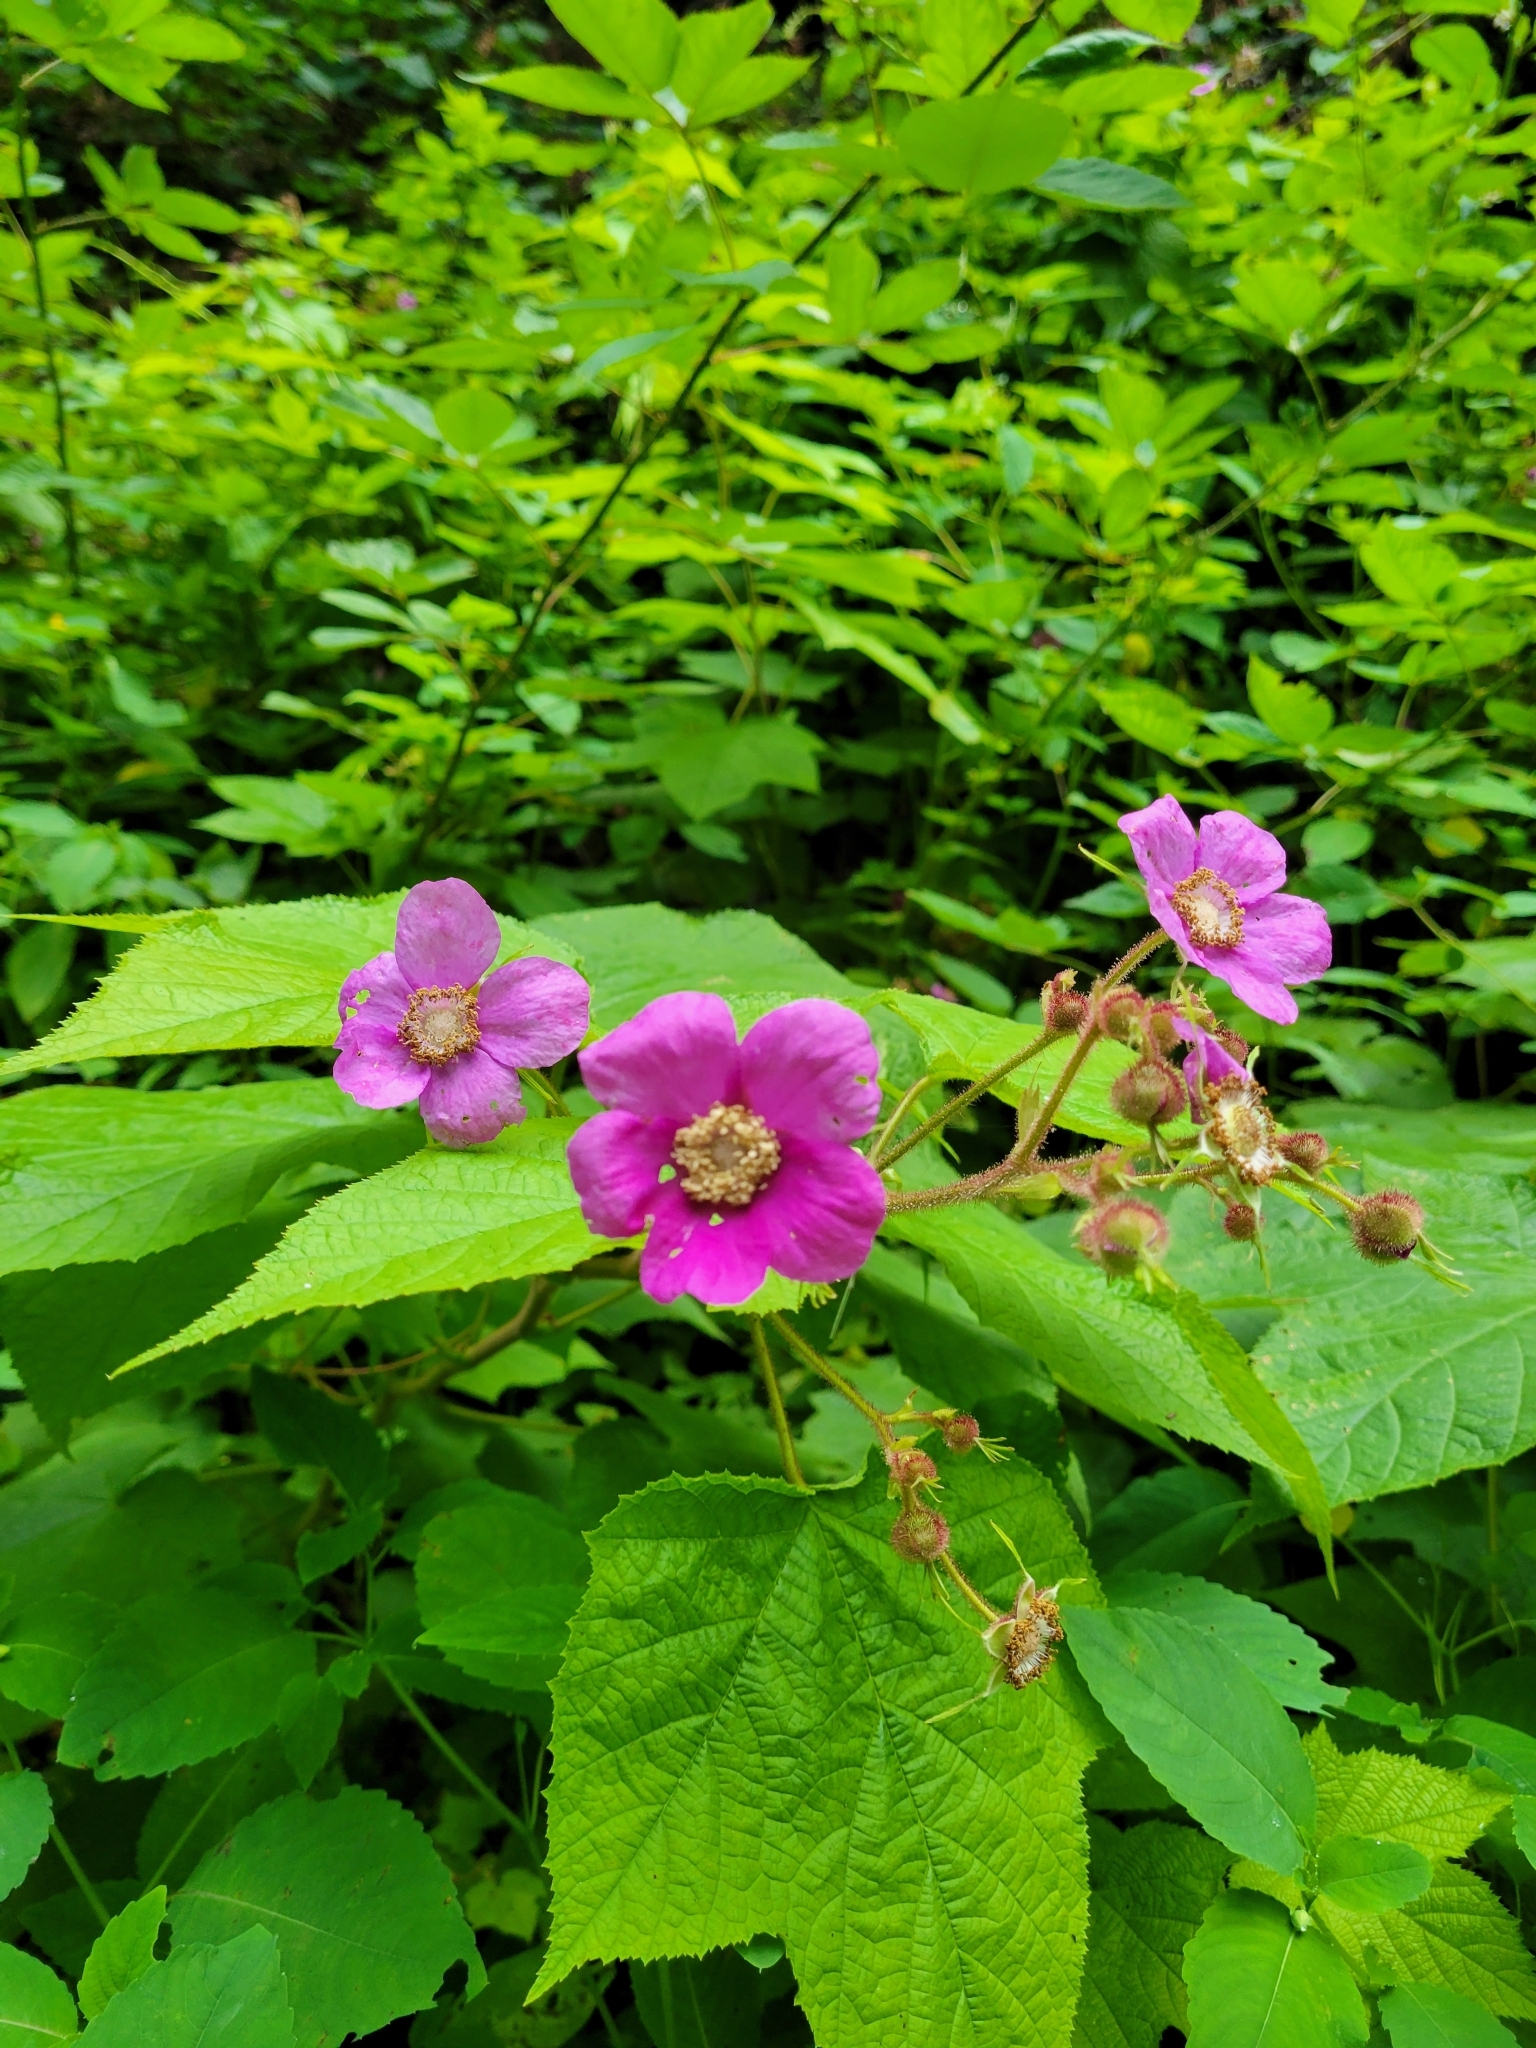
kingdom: Plantae
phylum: Tracheophyta
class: Magnoliopsida
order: Rosales
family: Rosaceae
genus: Rubus
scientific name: Rubus odoratus
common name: Purple-flowered raspberry
